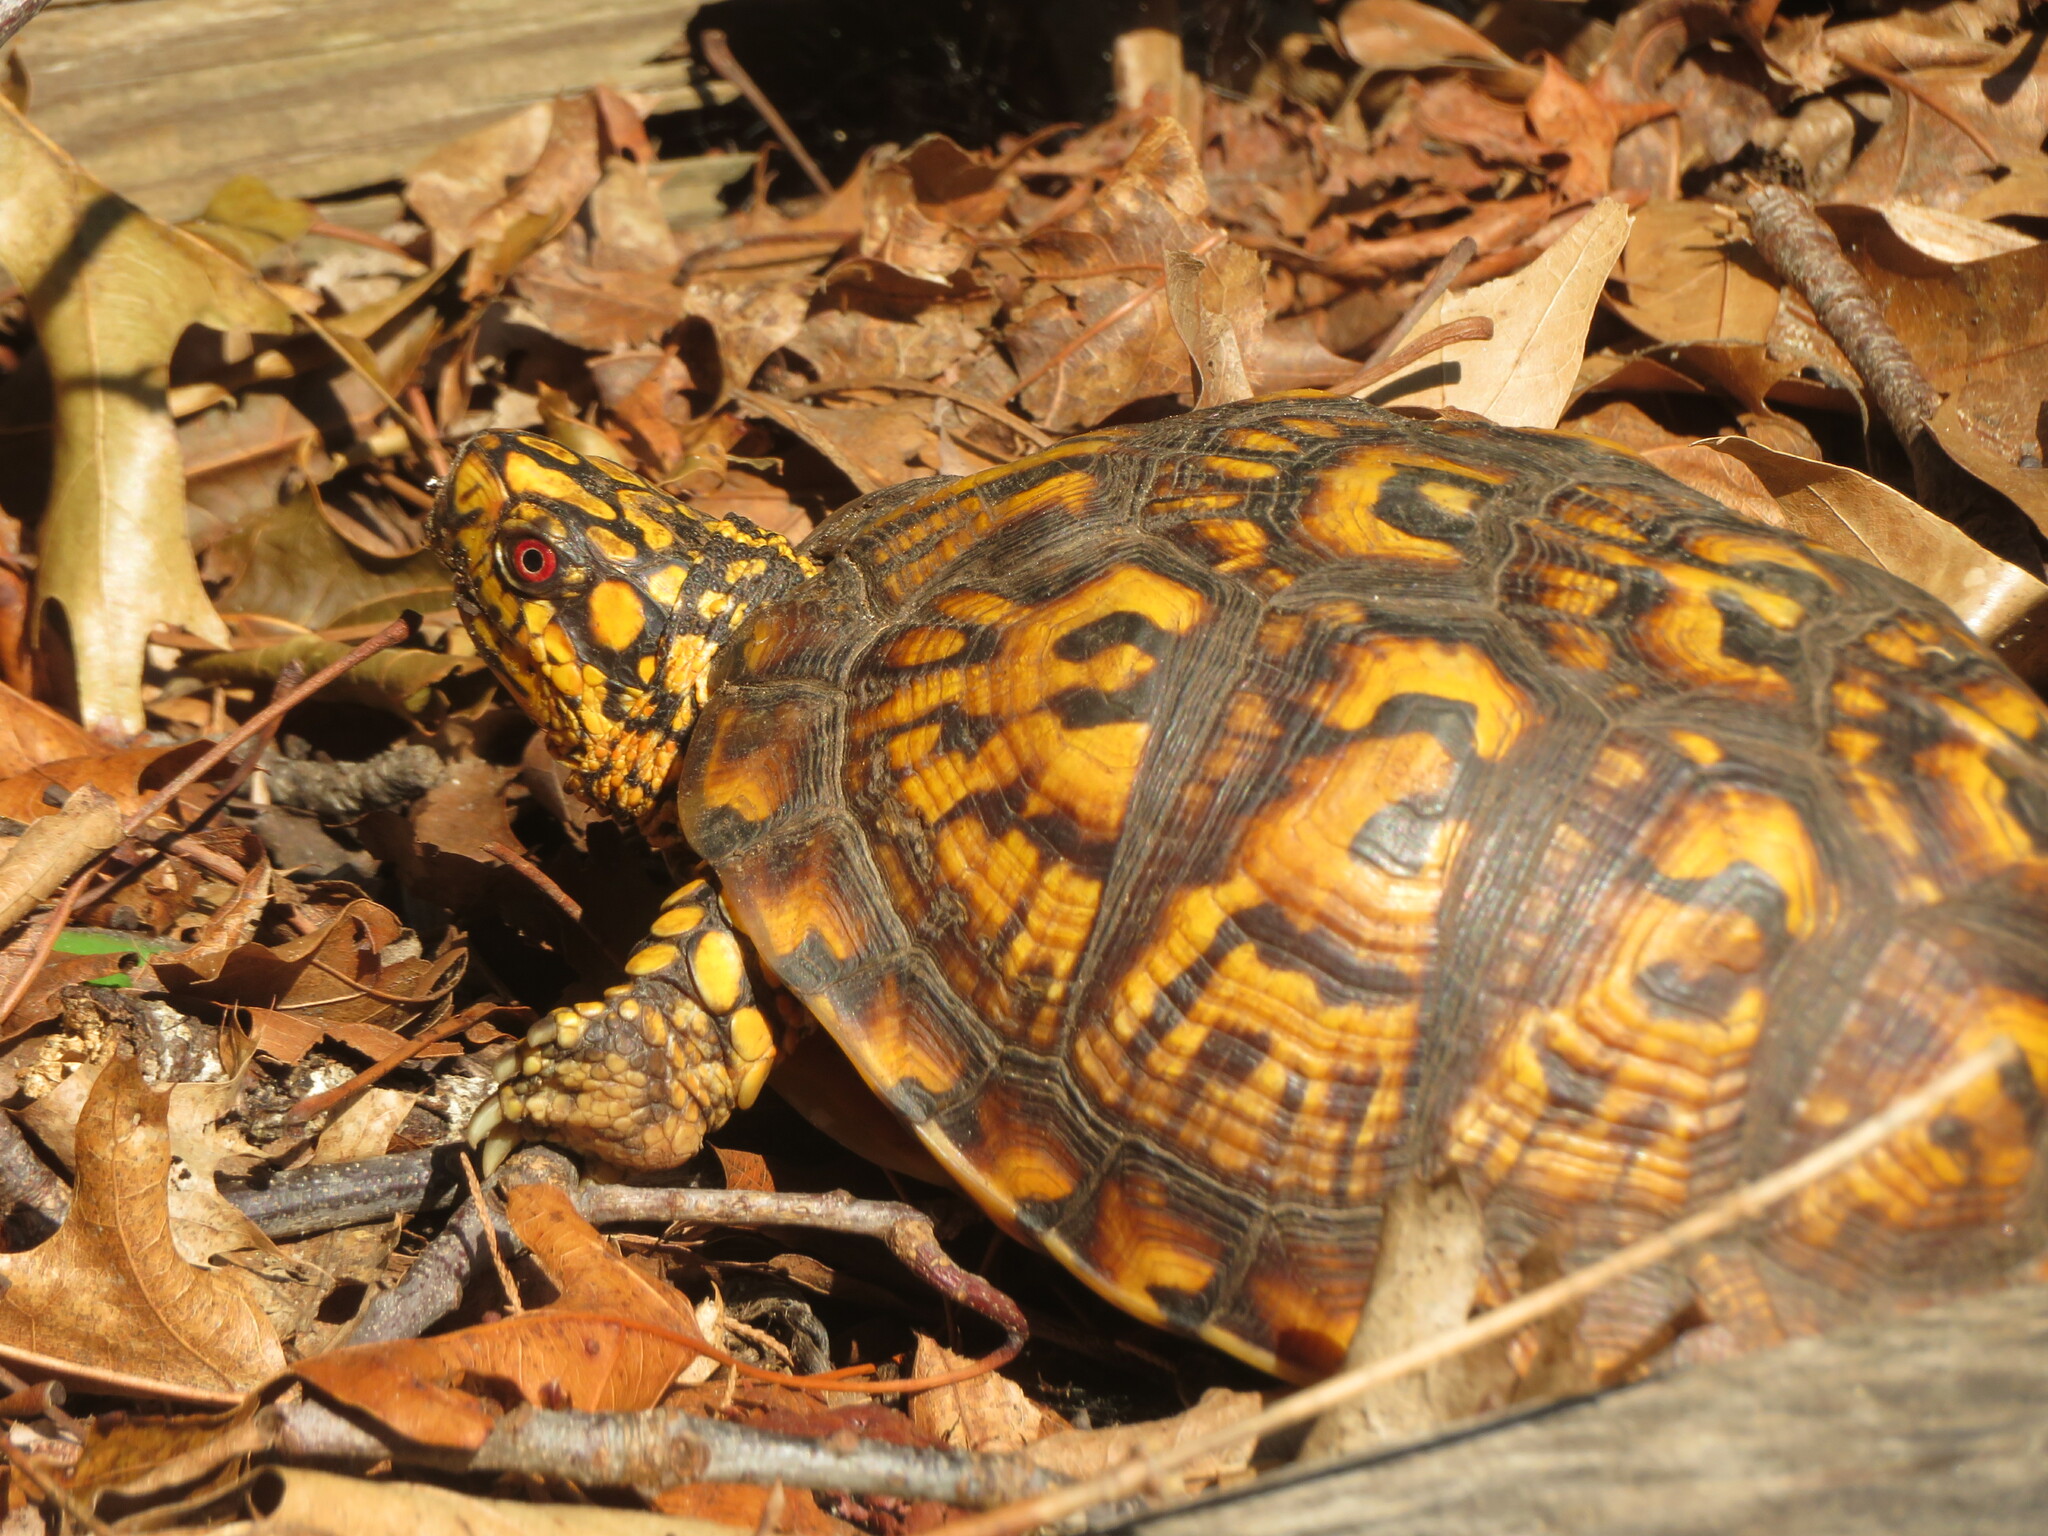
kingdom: Animalia
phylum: Chordata
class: Testudines
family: Emydidae
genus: Terrapene
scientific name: Terrapene carolina
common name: Common box turtle
